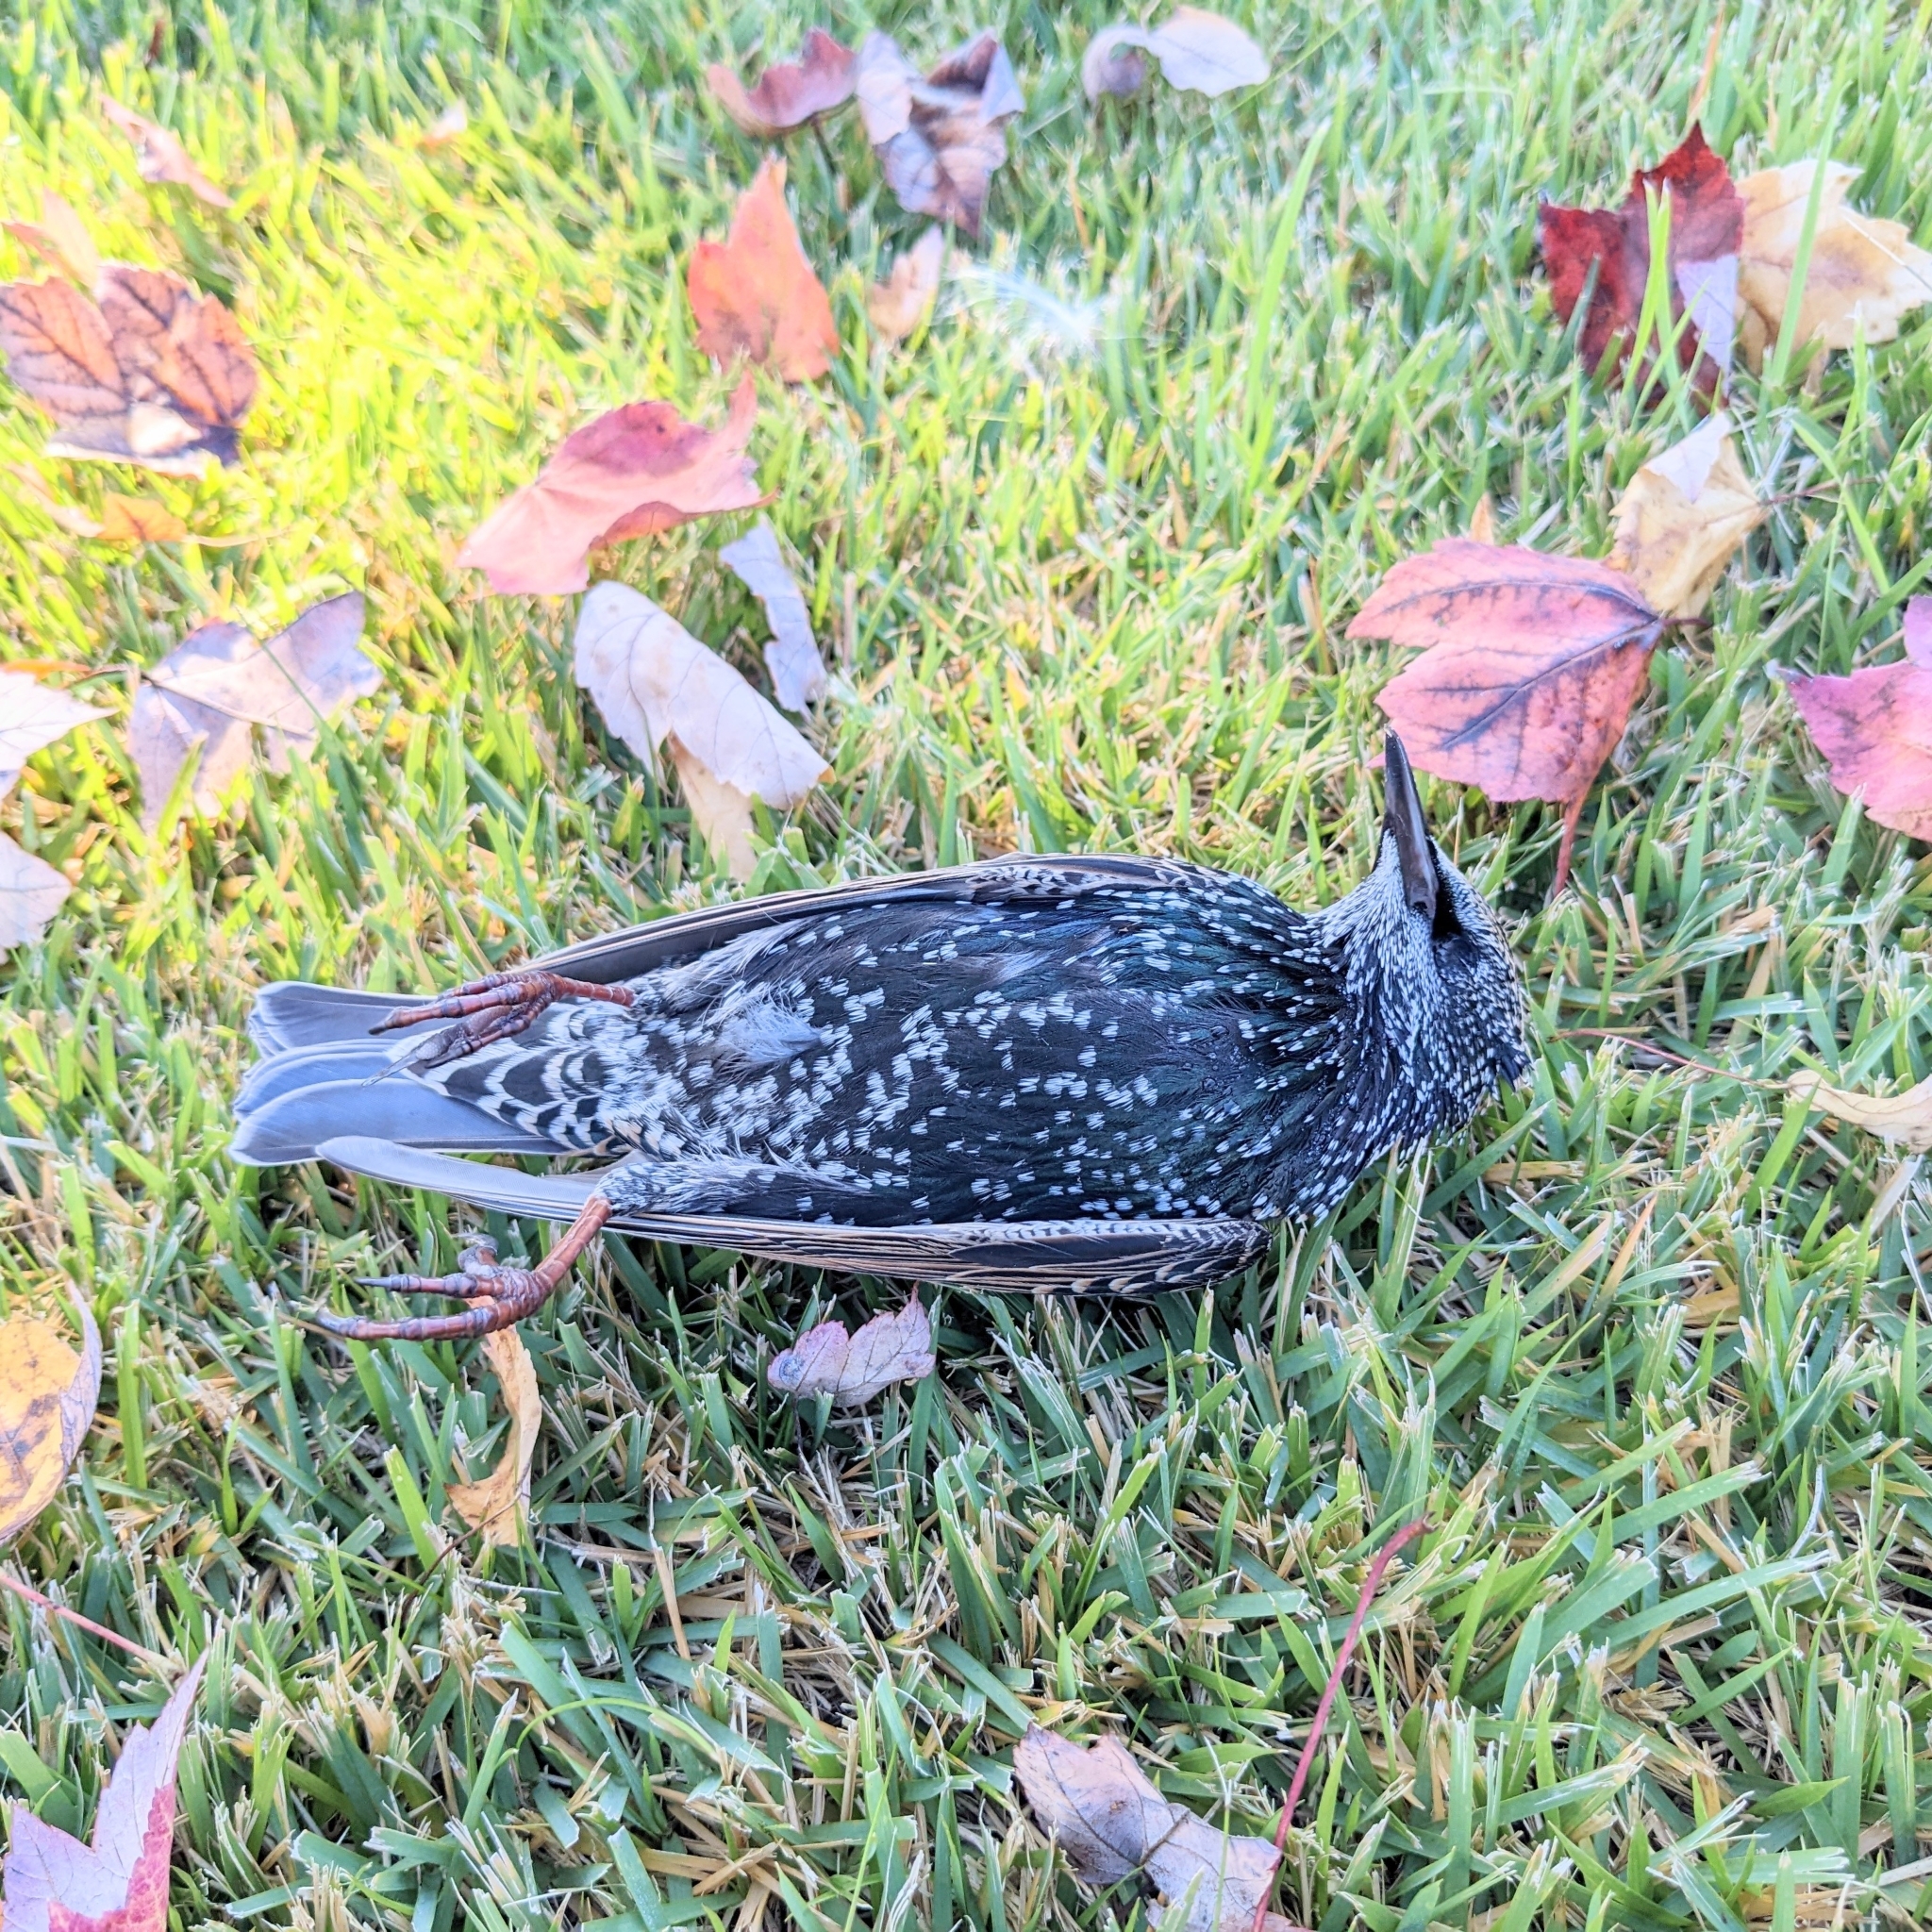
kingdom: Animalia
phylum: Chordata
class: Aves
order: Passeriformes
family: Sturnidae
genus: Sturnus
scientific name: Sturnus vulgaris
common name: Common starling
